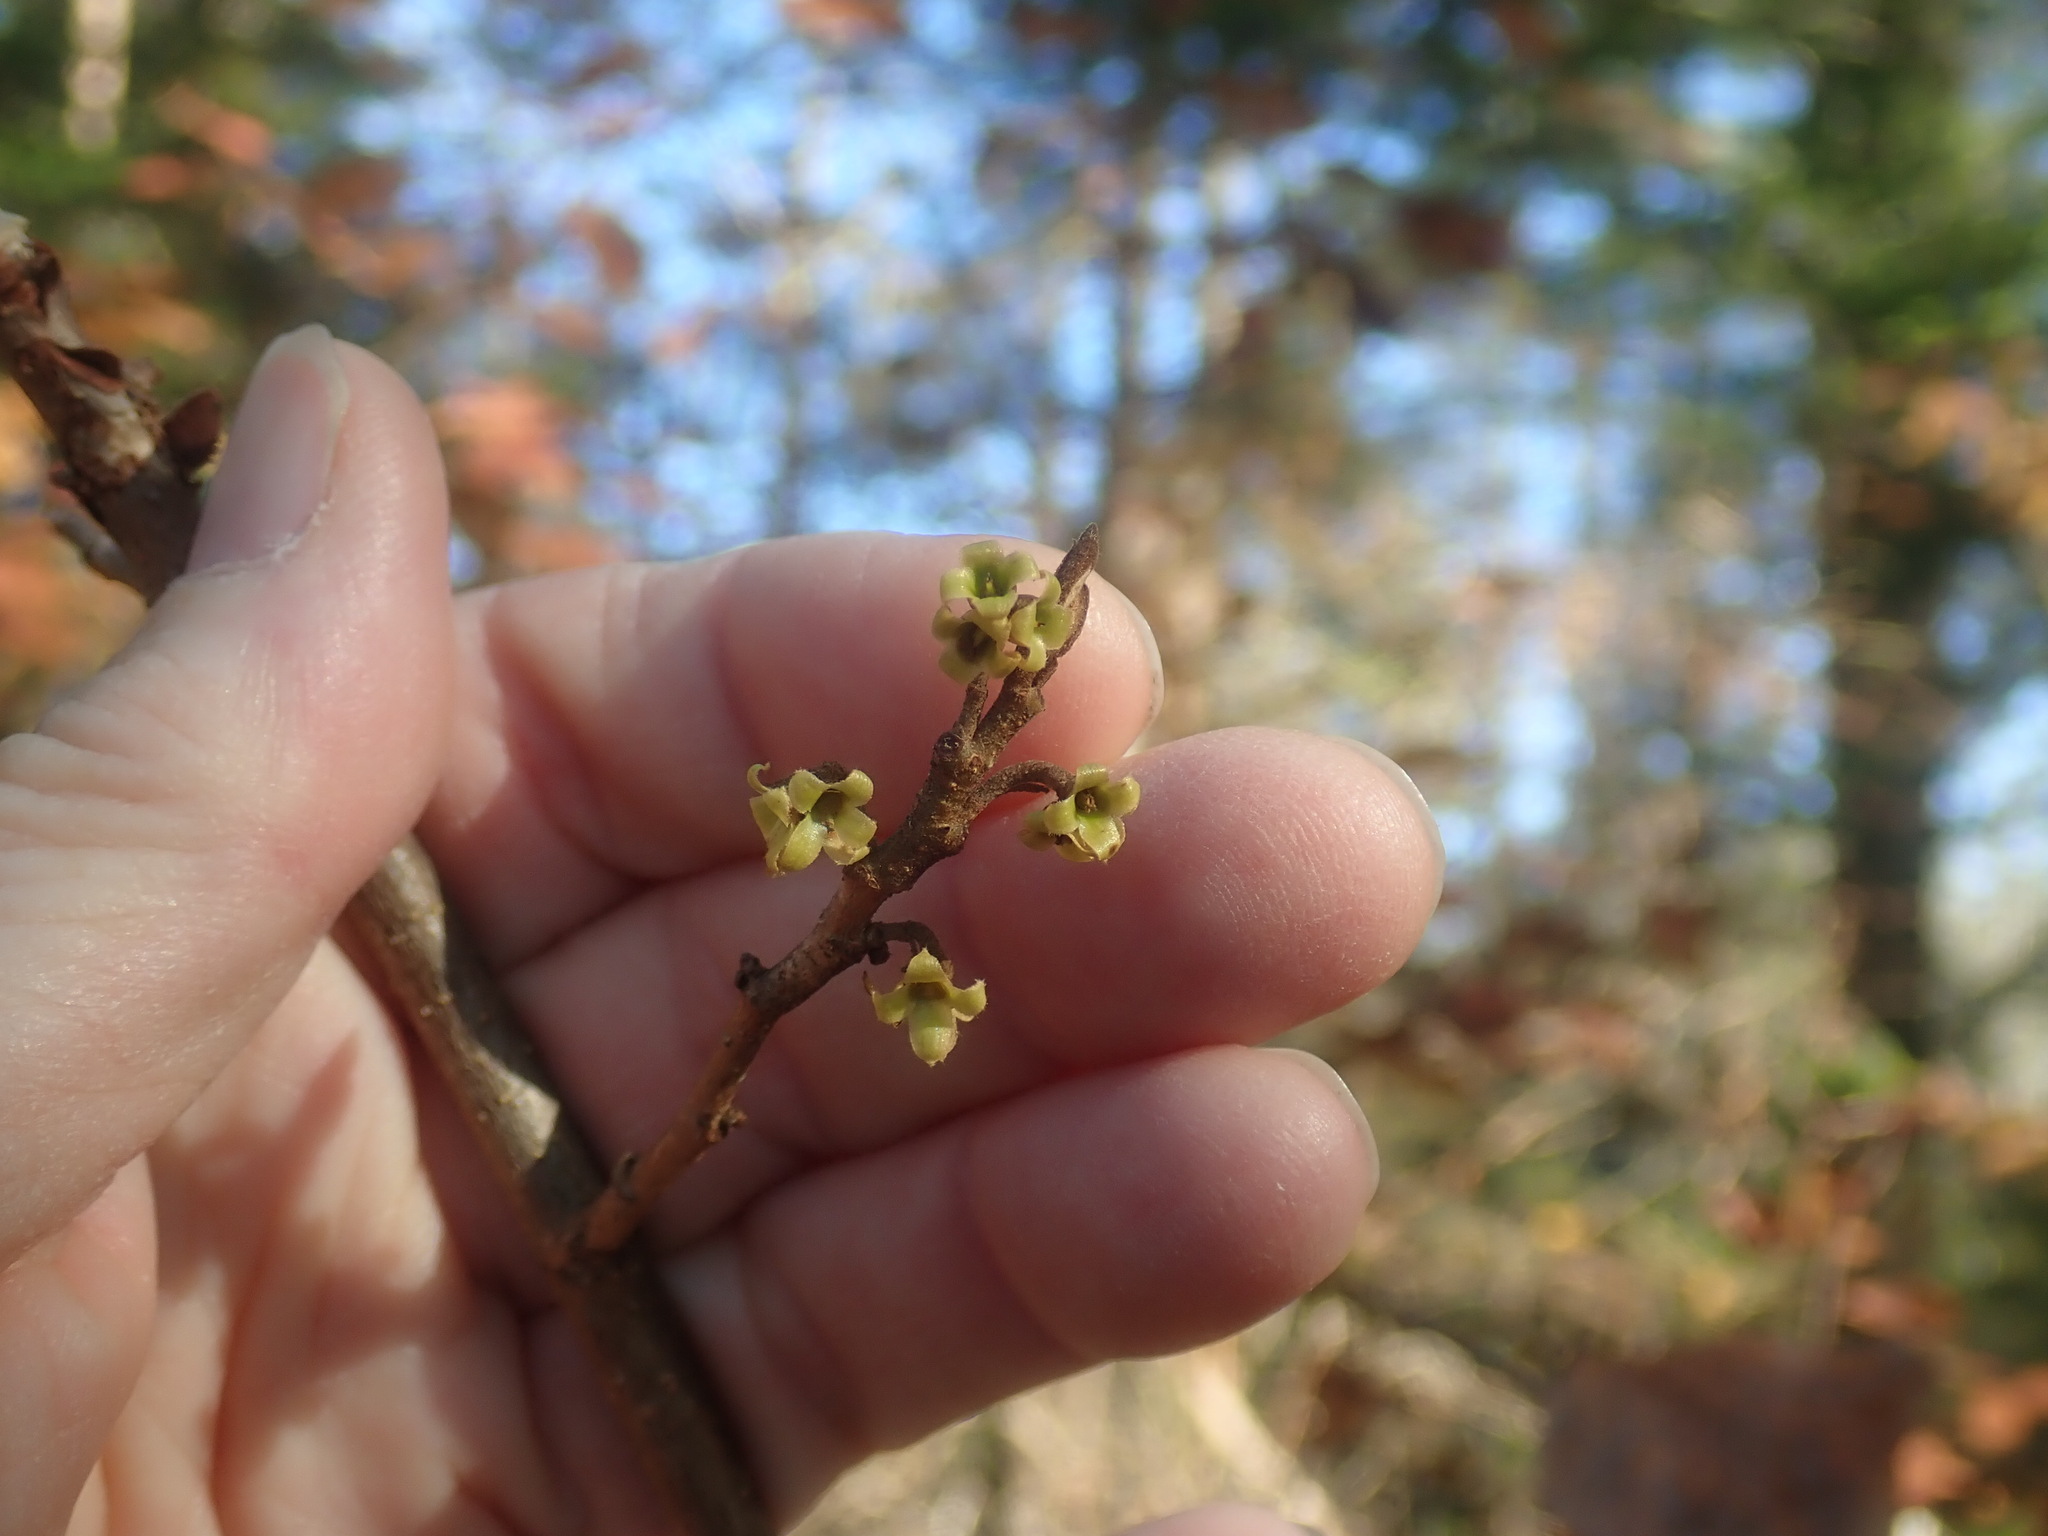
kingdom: Plantae
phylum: Tracheophyta
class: Magnoliopsida
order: Saxifragales
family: Hamamelidaceae
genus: Hamamelis
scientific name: Hamamelis virginiana
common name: Witch-hazel
